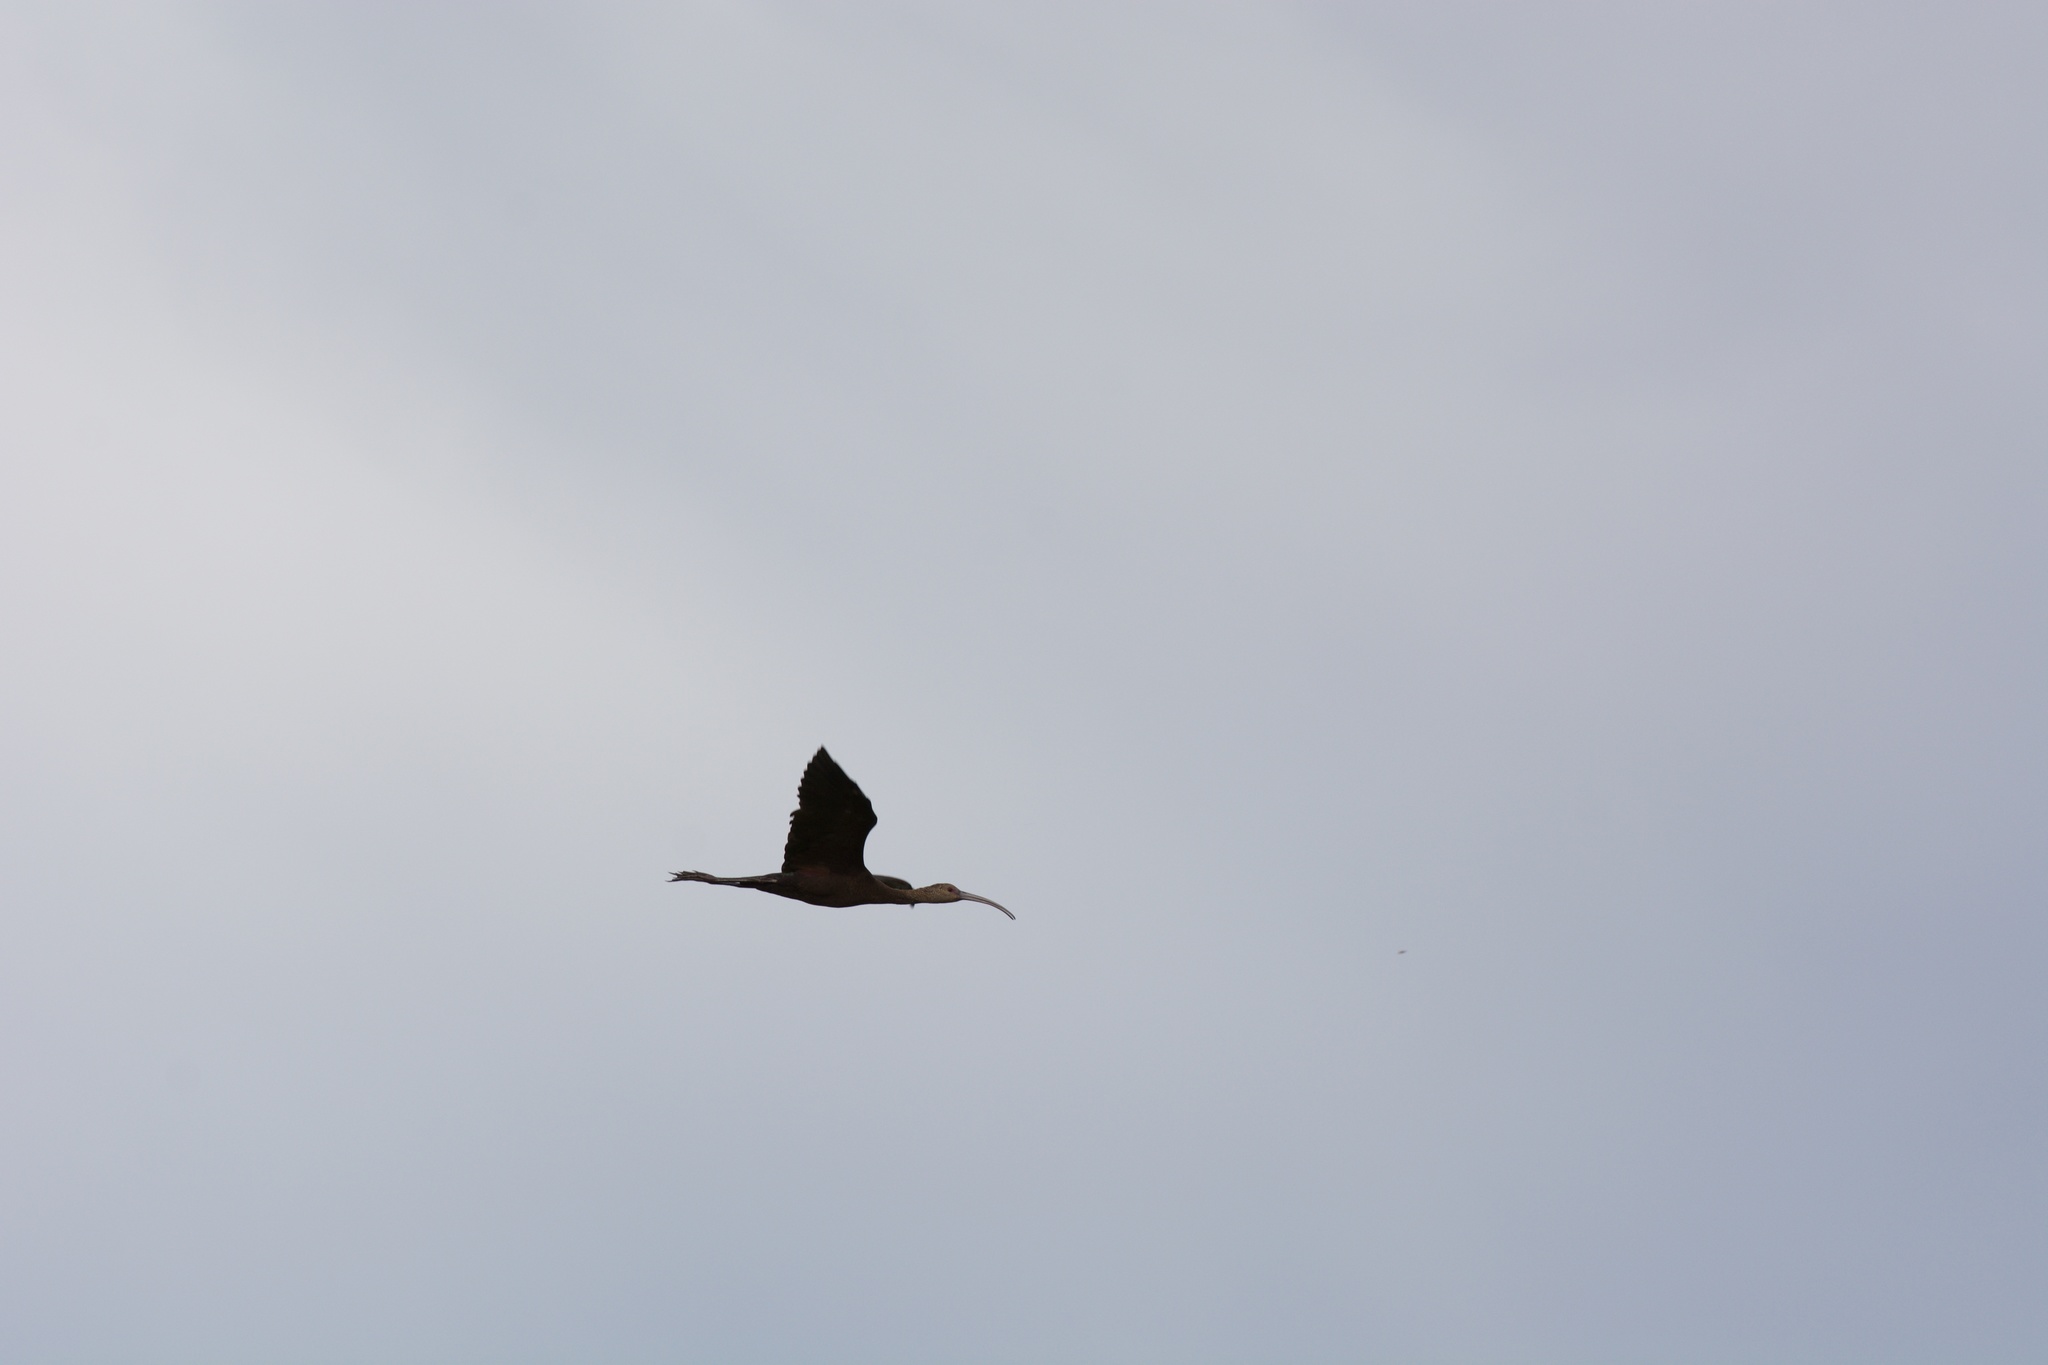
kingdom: Animalia
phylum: Chordata
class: Aves
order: Pelecaniformes
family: Threskiornithidae
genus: Plegadis
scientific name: Plegadis chihi
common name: White-faced ibis
